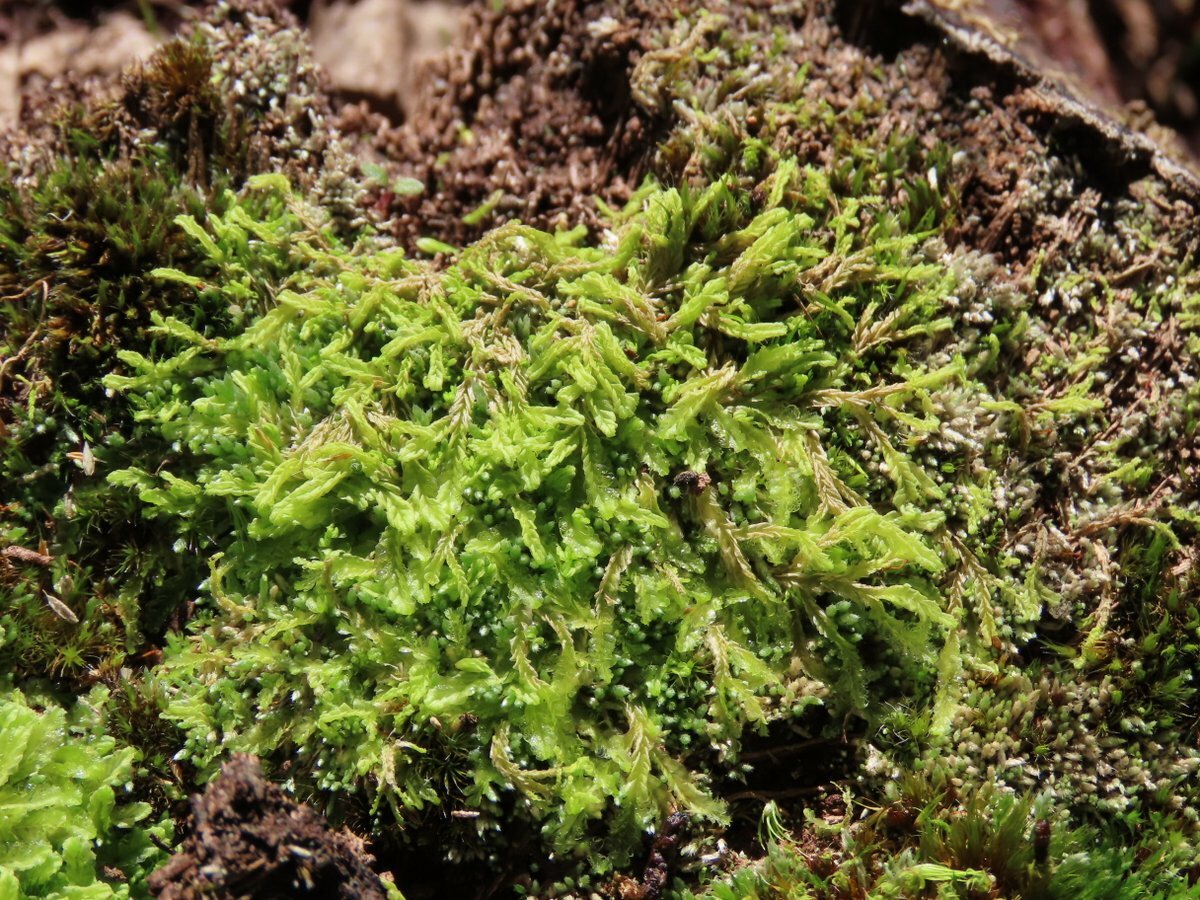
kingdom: Plantae
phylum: Marchantiophyta
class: Jungermanniopsida
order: Jungermanniales
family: Lophocoleaceae
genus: Lophocolea
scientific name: Lophocolea semiteres
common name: Southern crestwort
